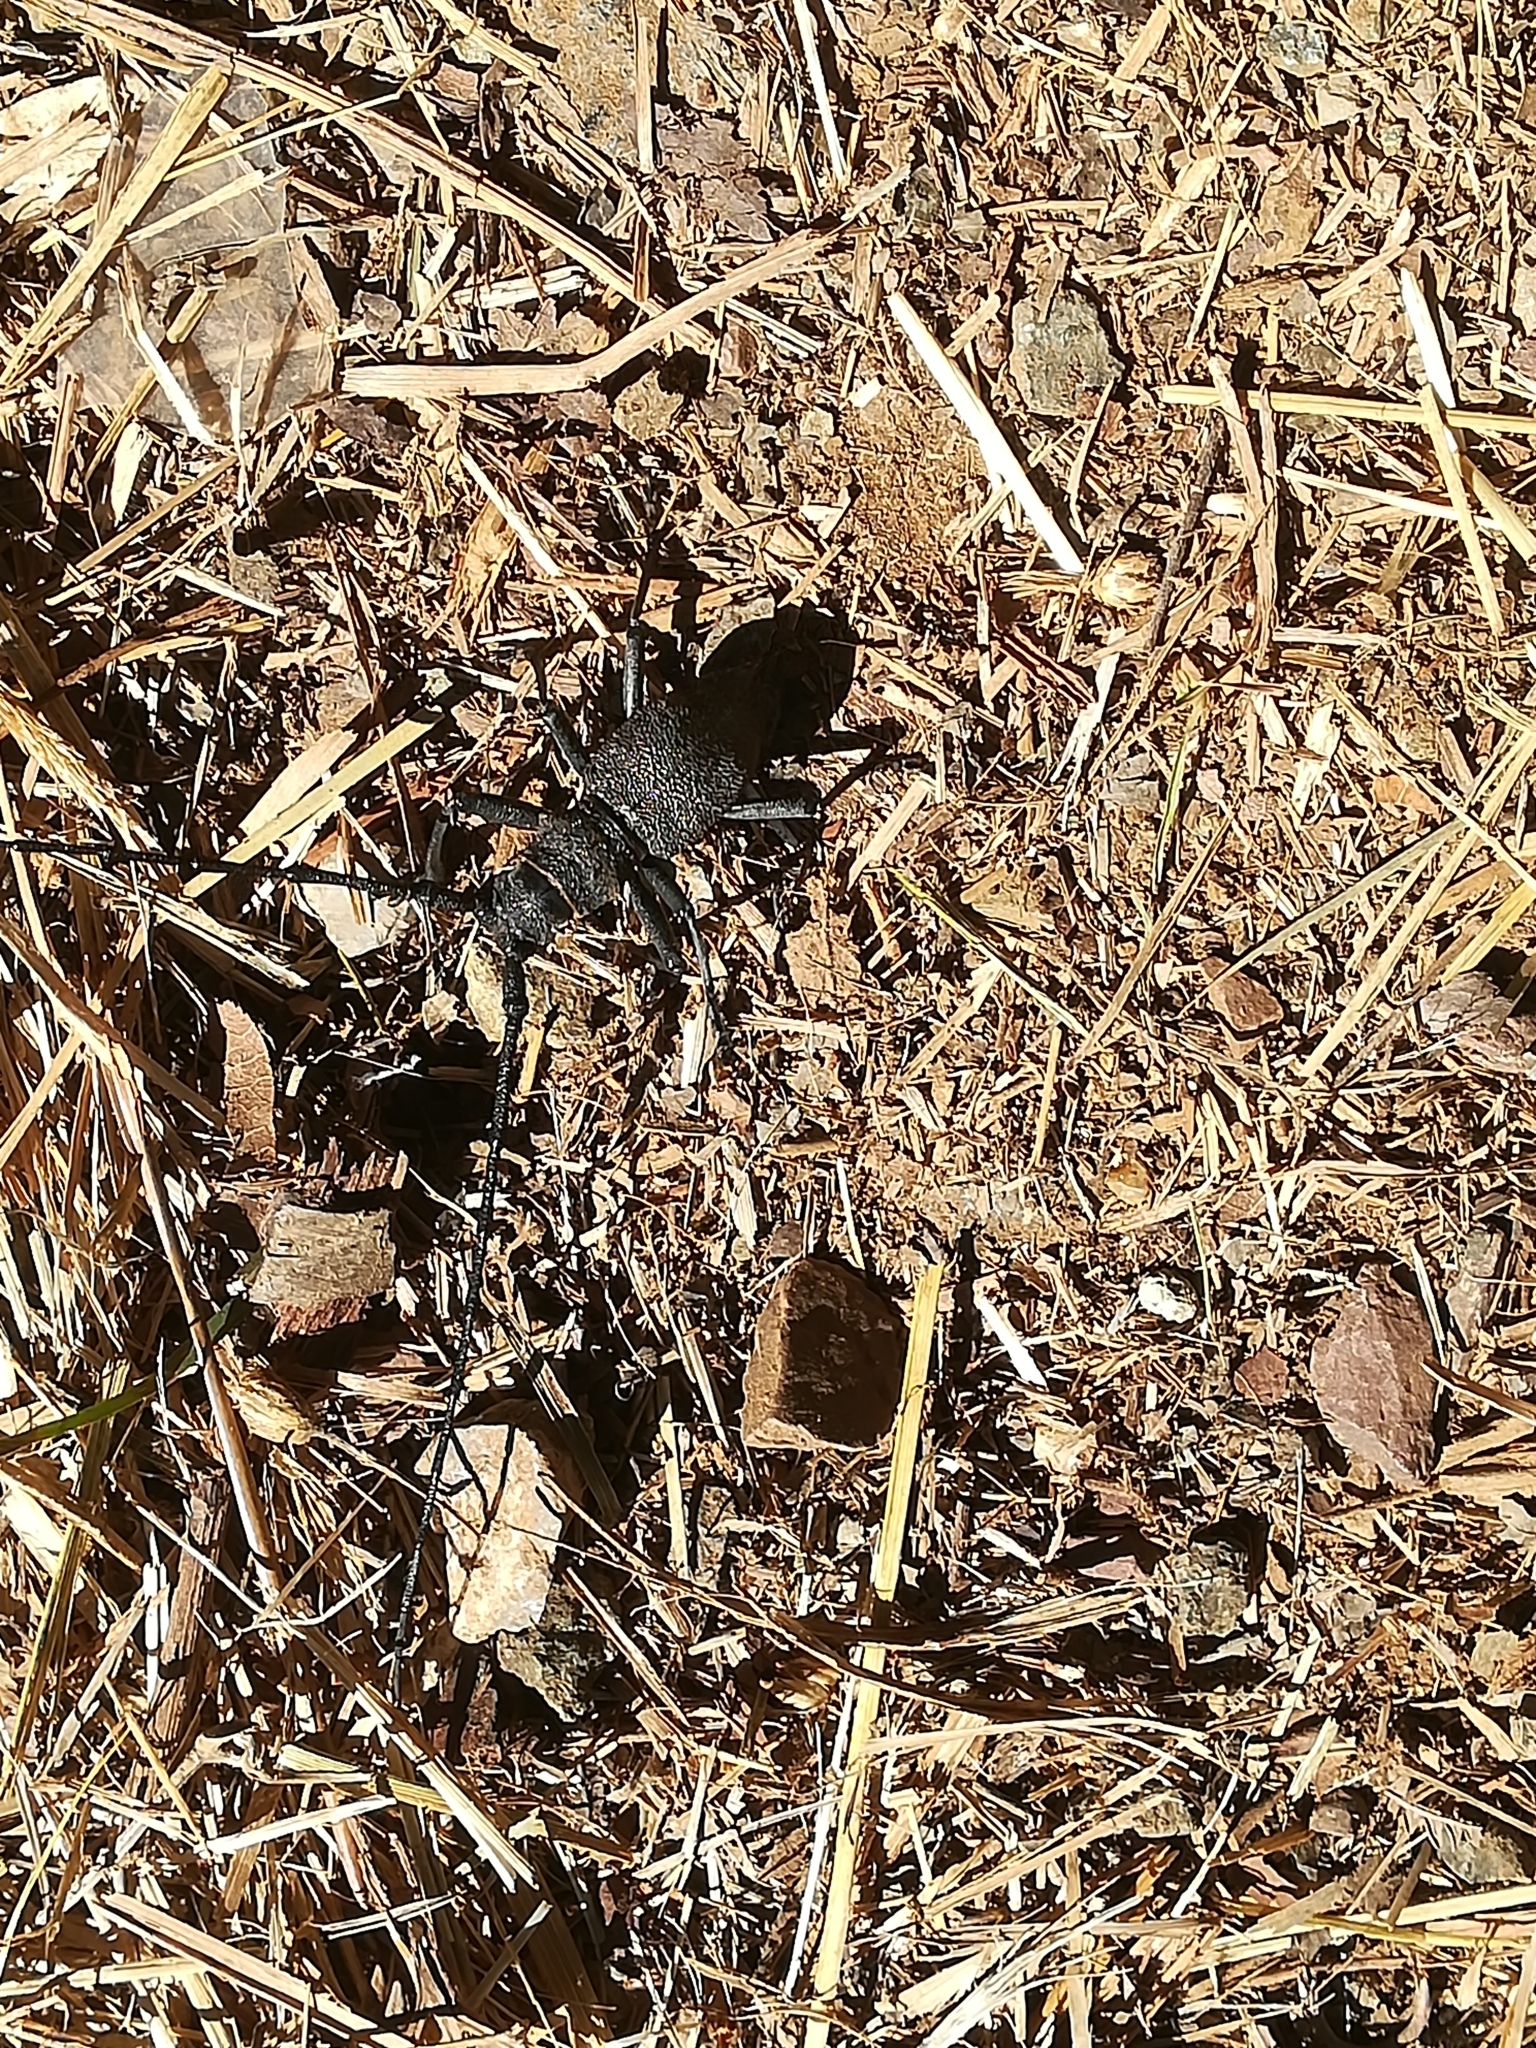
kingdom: Animalia
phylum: Arthropoda
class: Insecta
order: Coleoptera
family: Cerambycidae
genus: Morimus
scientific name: Morimus asper
